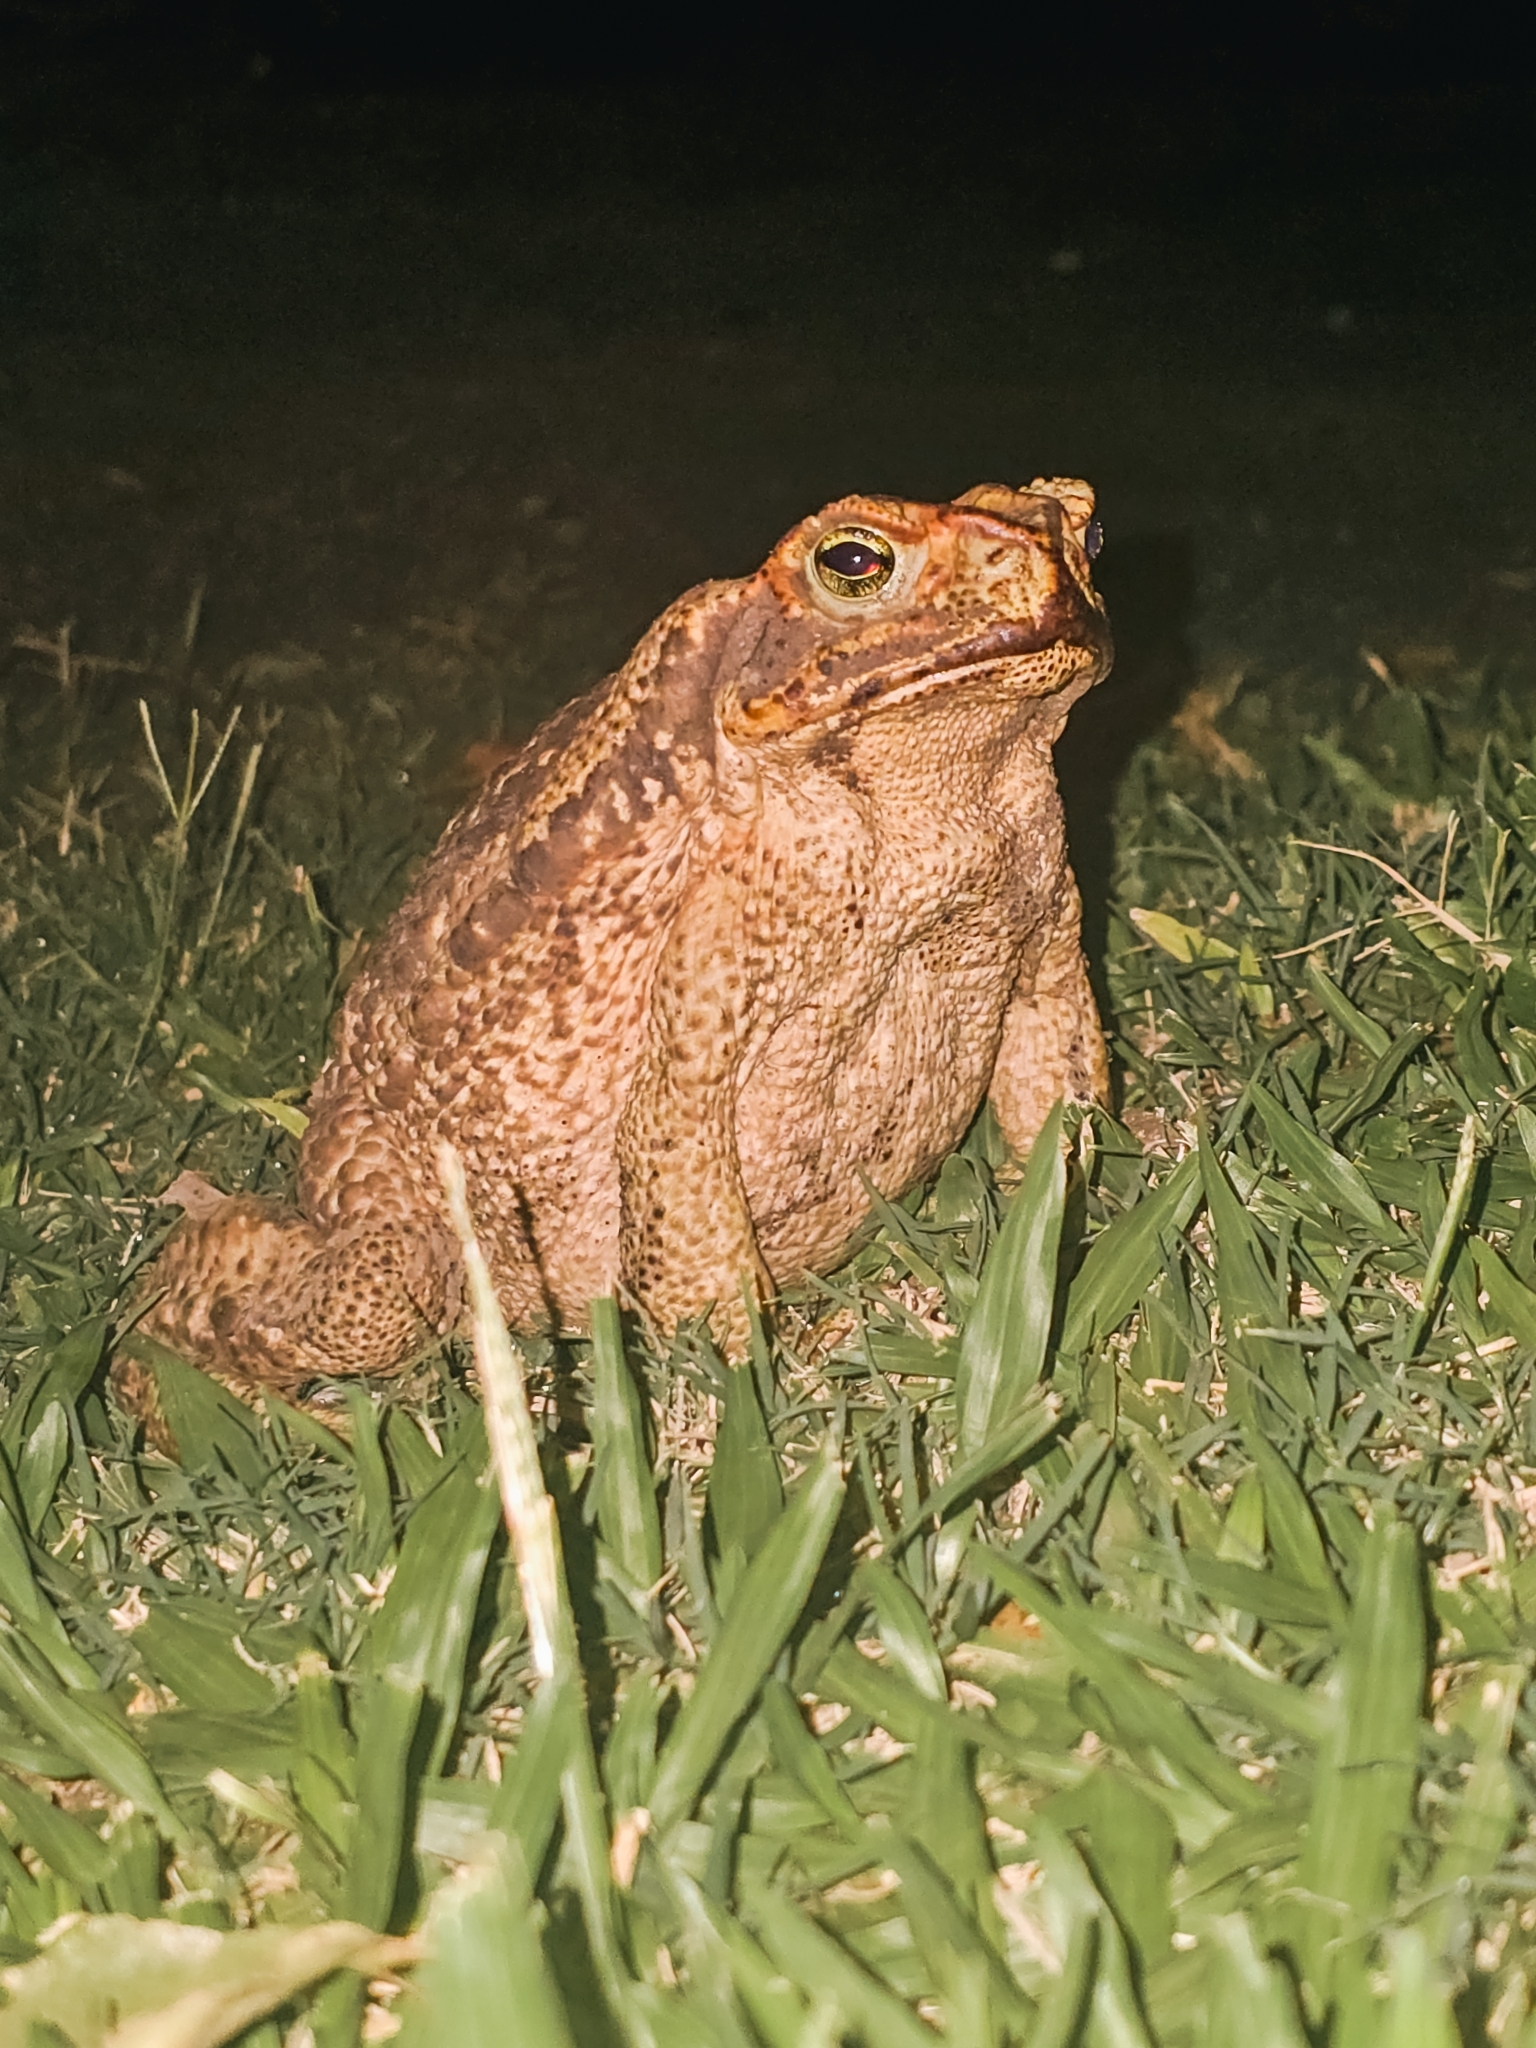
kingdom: Animalia
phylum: Chordata
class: Amphibia
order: Anura
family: Bufonidae
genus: Rhinella
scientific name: Rhinella diptycha
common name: Cope's toad
